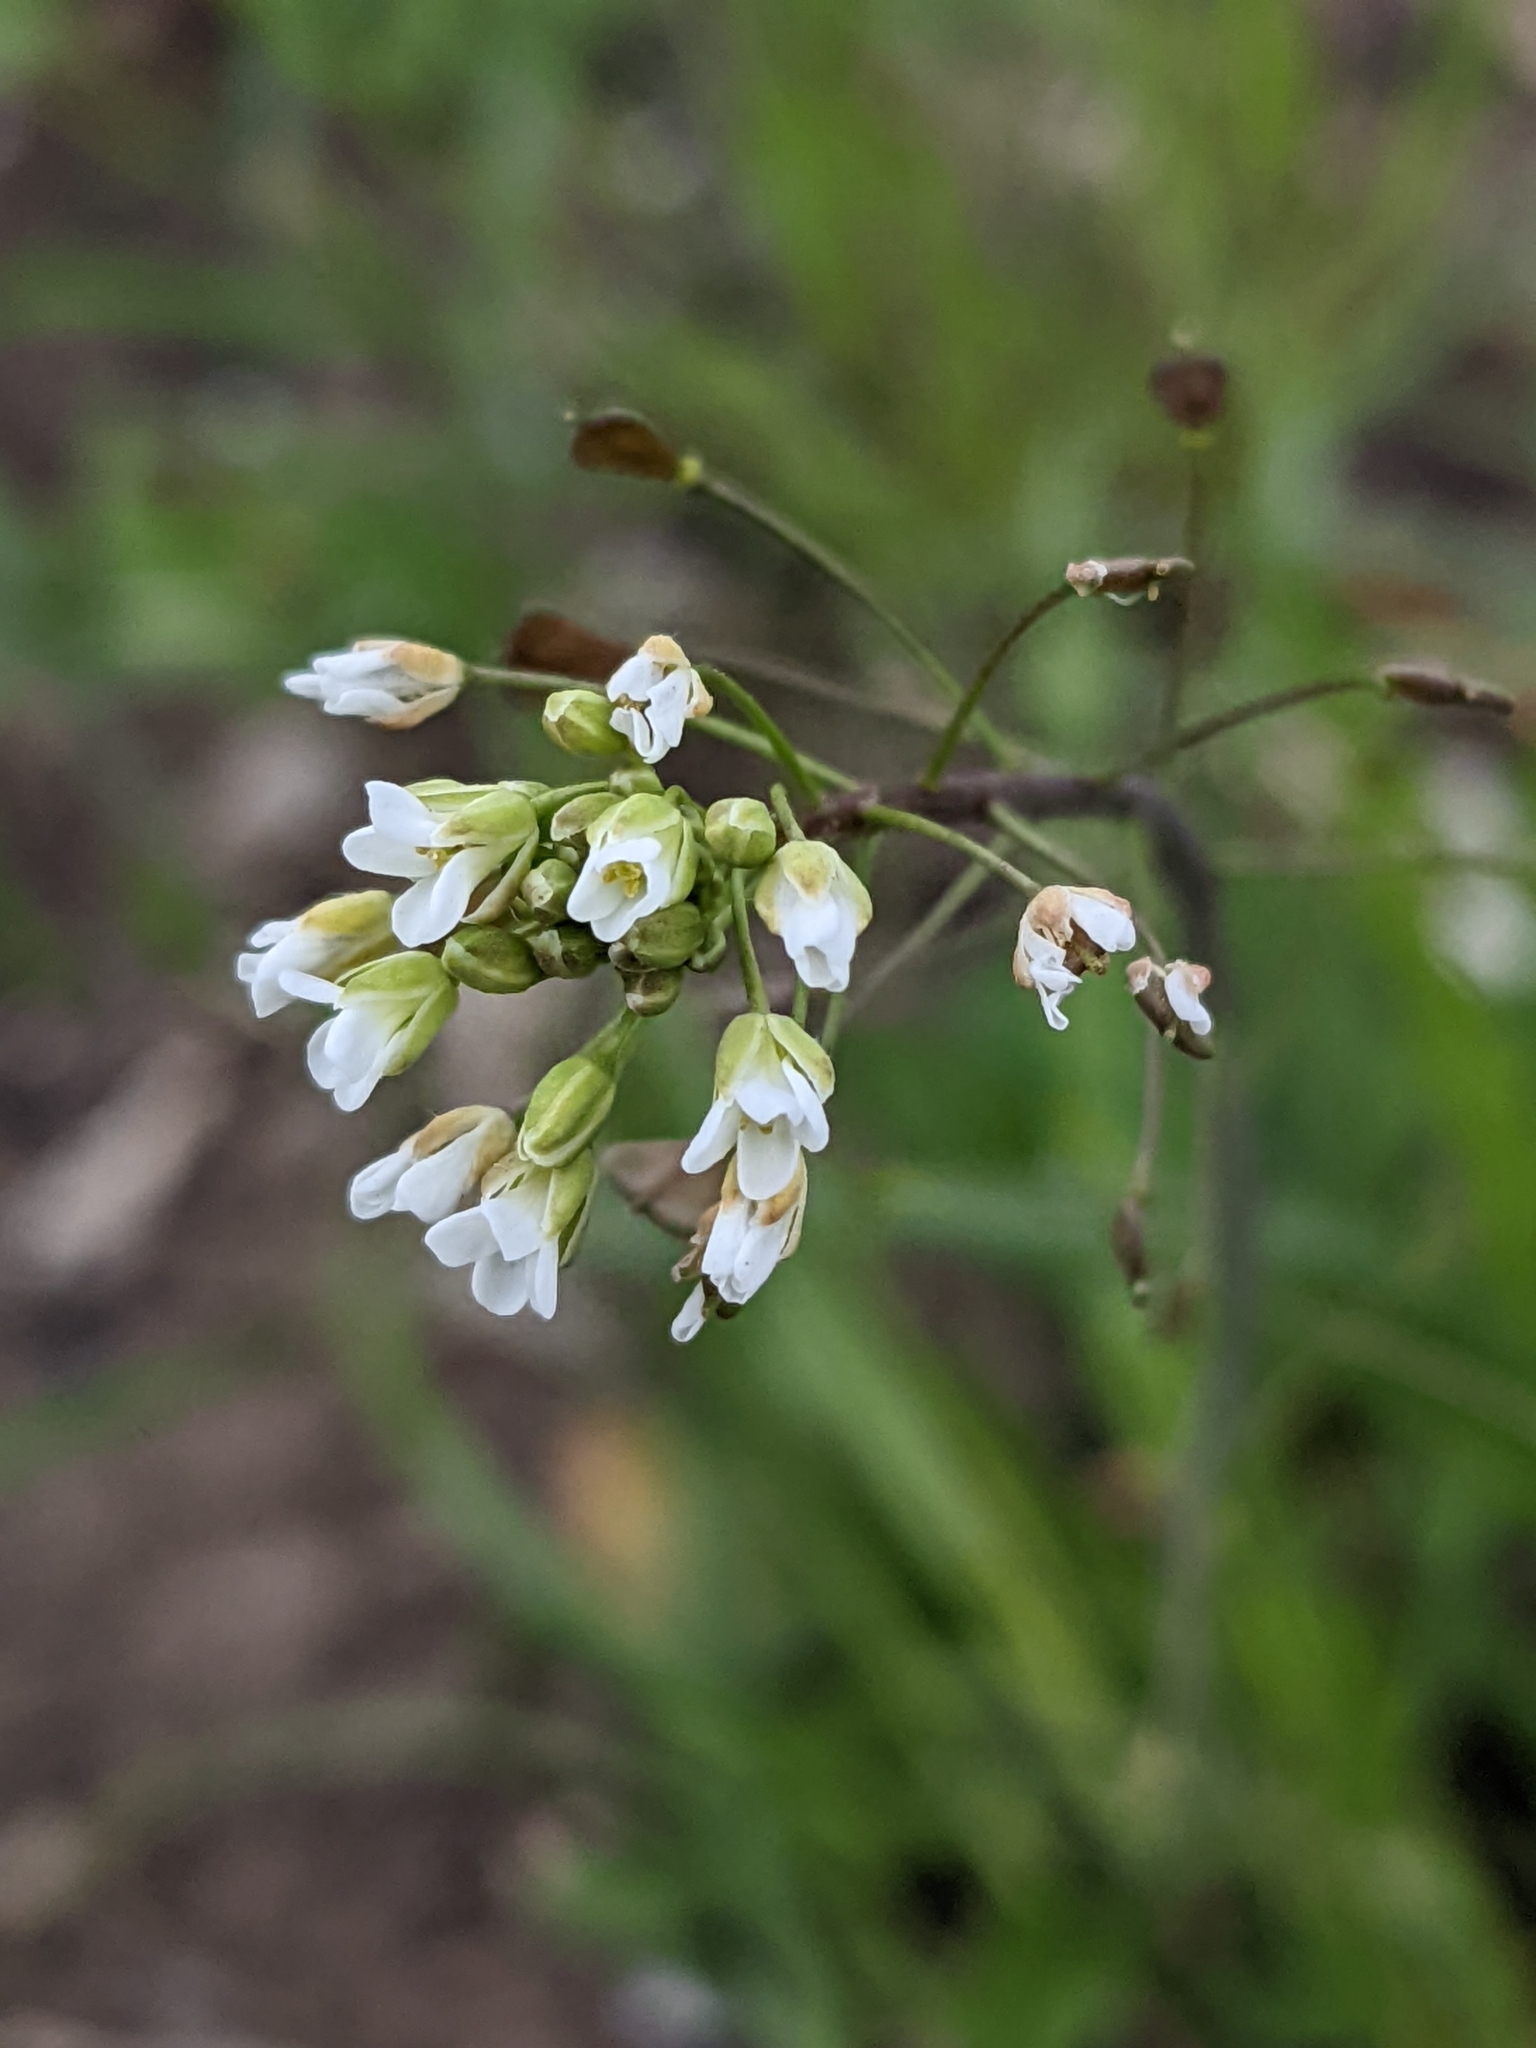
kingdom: Plantae
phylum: Tracheophyta
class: Magnoliopsida
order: Brassicales
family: Brassicaceae
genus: Capsella
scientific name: Capsella bursa-pastoris
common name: Shepherd's purse
